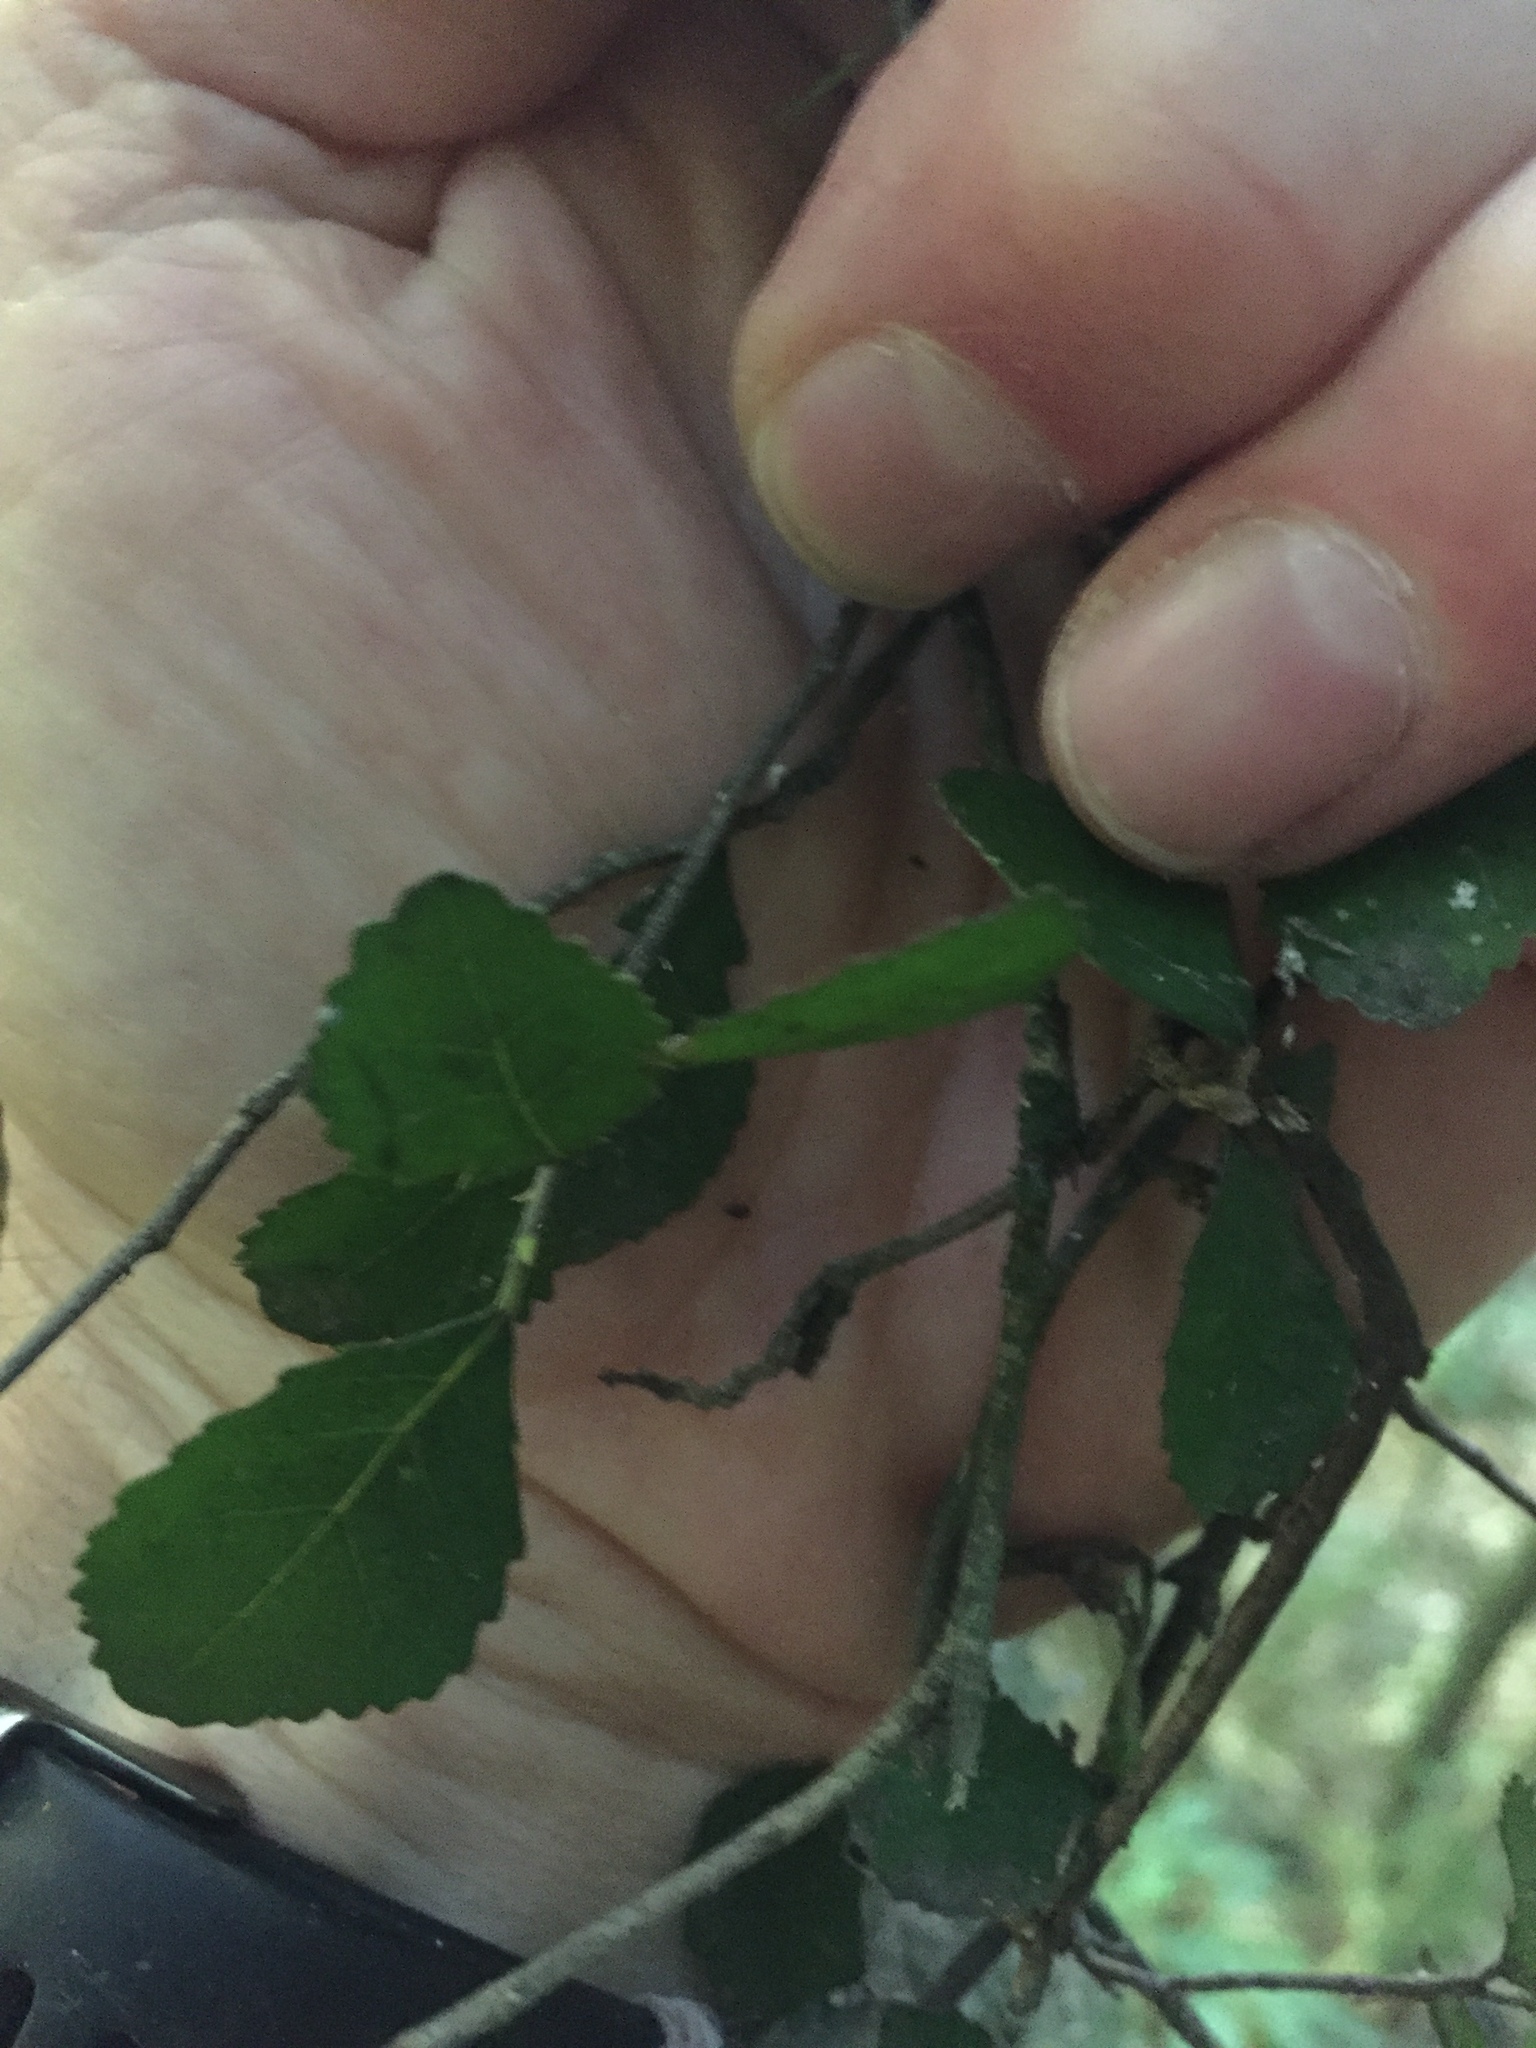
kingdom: Plantae
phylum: Tracheophyta
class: Magnoliopsida
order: Rosales
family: Moraceae
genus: Paratrophis
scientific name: Paratrophis microphylla
